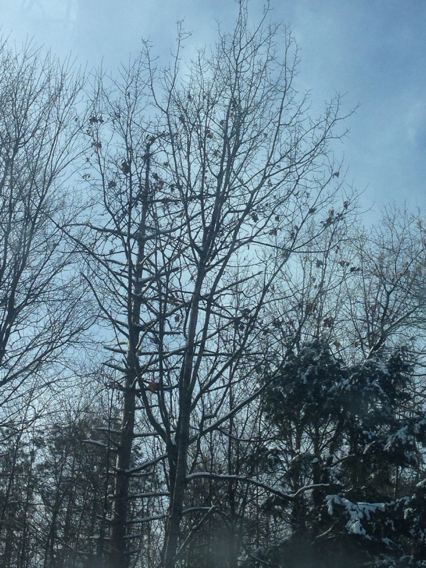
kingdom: Plantae
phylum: Tracheophyta
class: Magnoliopsida
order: Fagales
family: Fagaceae
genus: Quercus
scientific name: Quercus rubra
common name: Red oak
